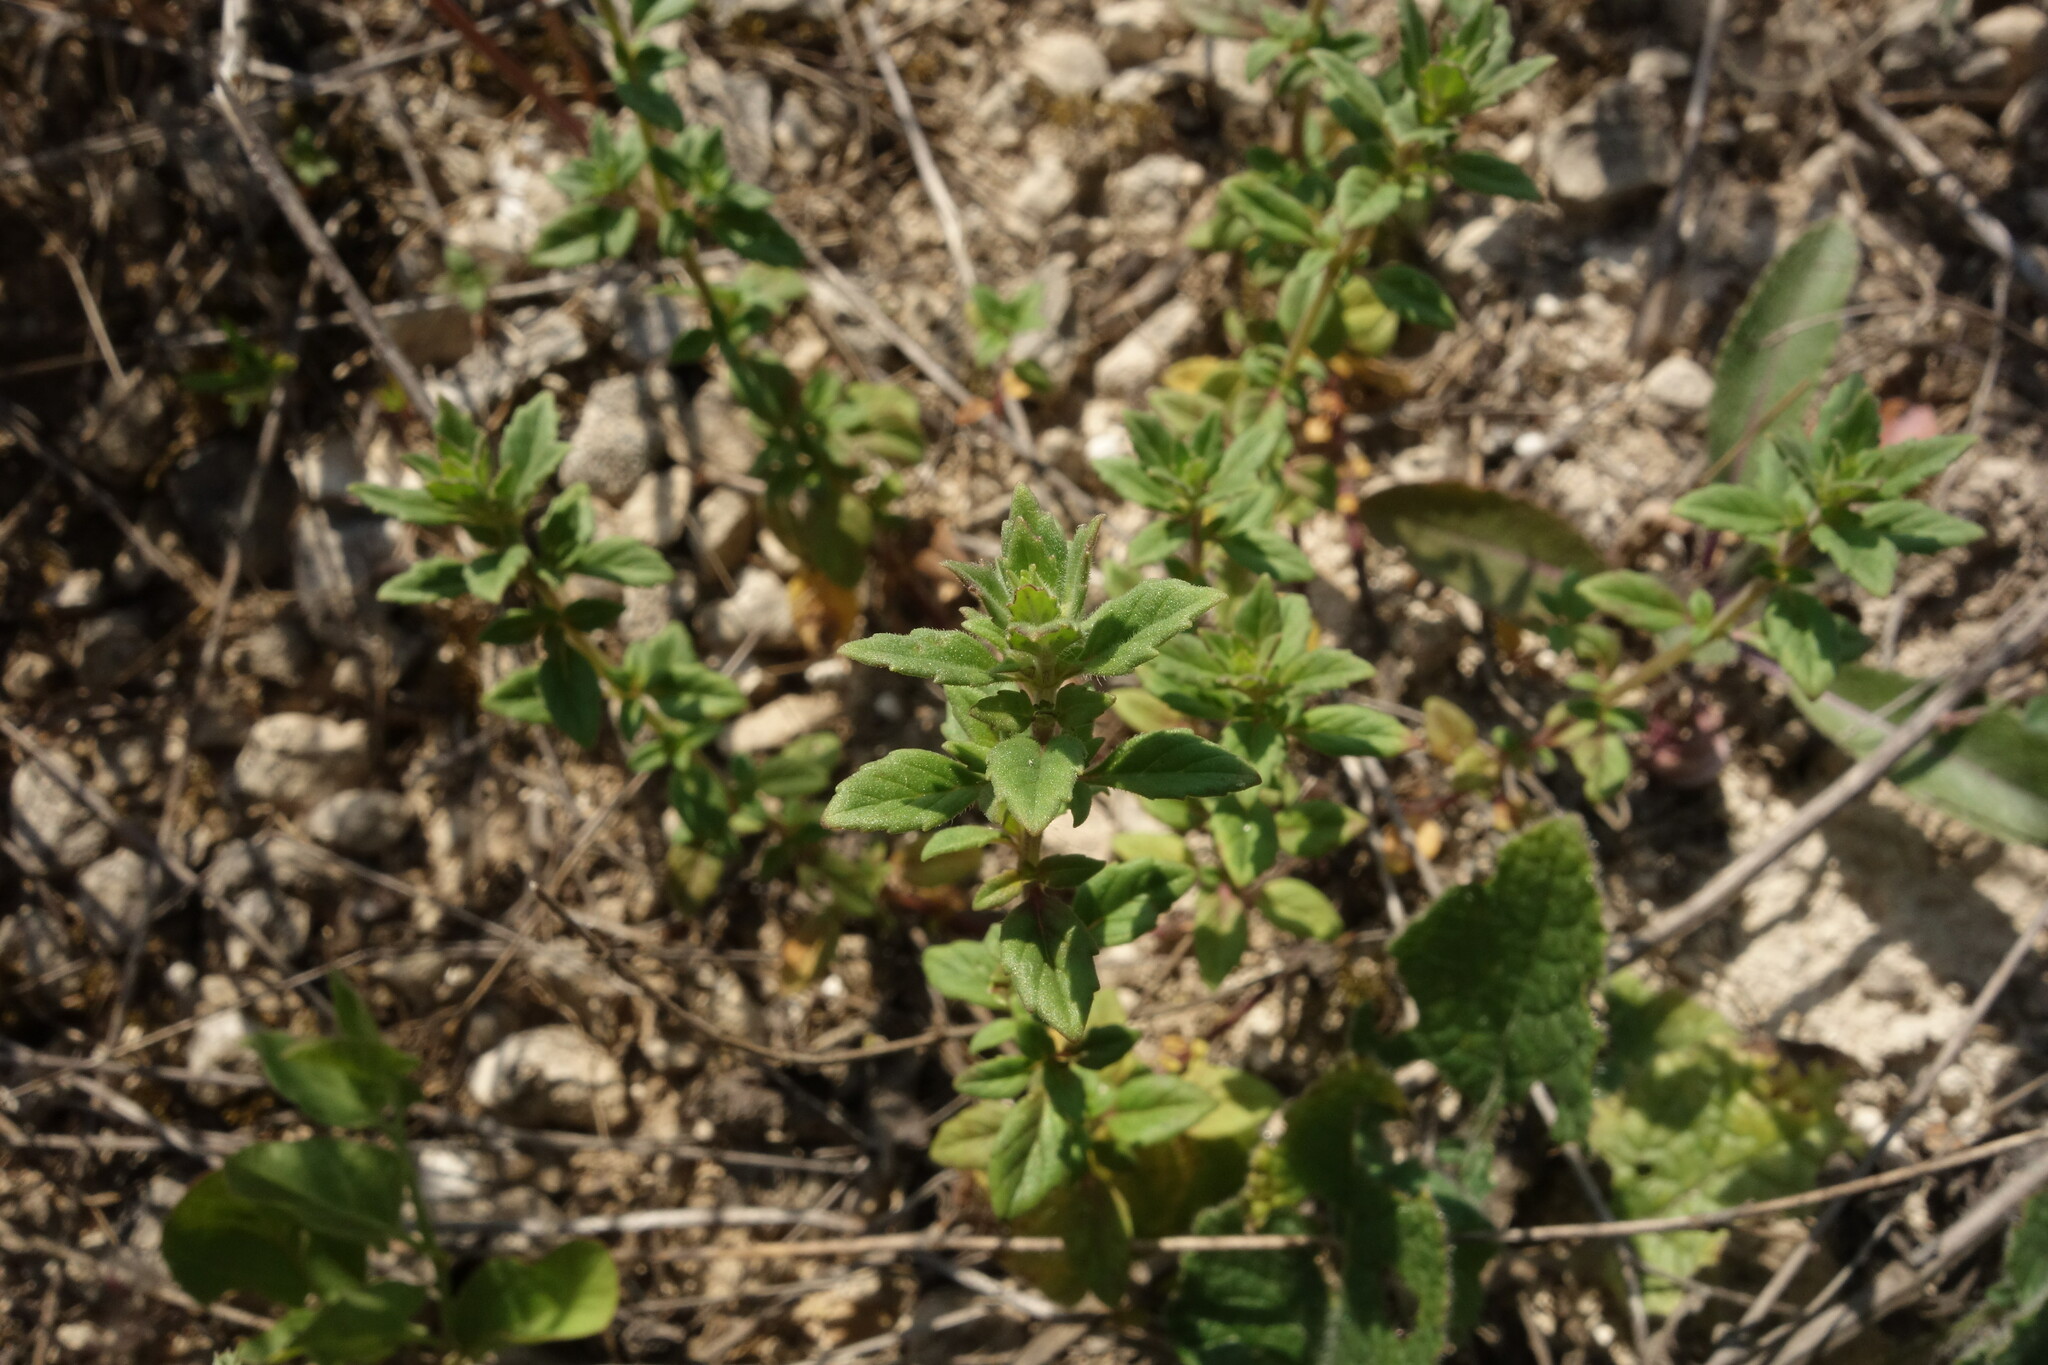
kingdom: Plantae
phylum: Tracheophyta
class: Magnoliopsida
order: Lamiales
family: Lamiaceae
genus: Clinopodium
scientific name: Clinopodium acinos
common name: Basil thyme
